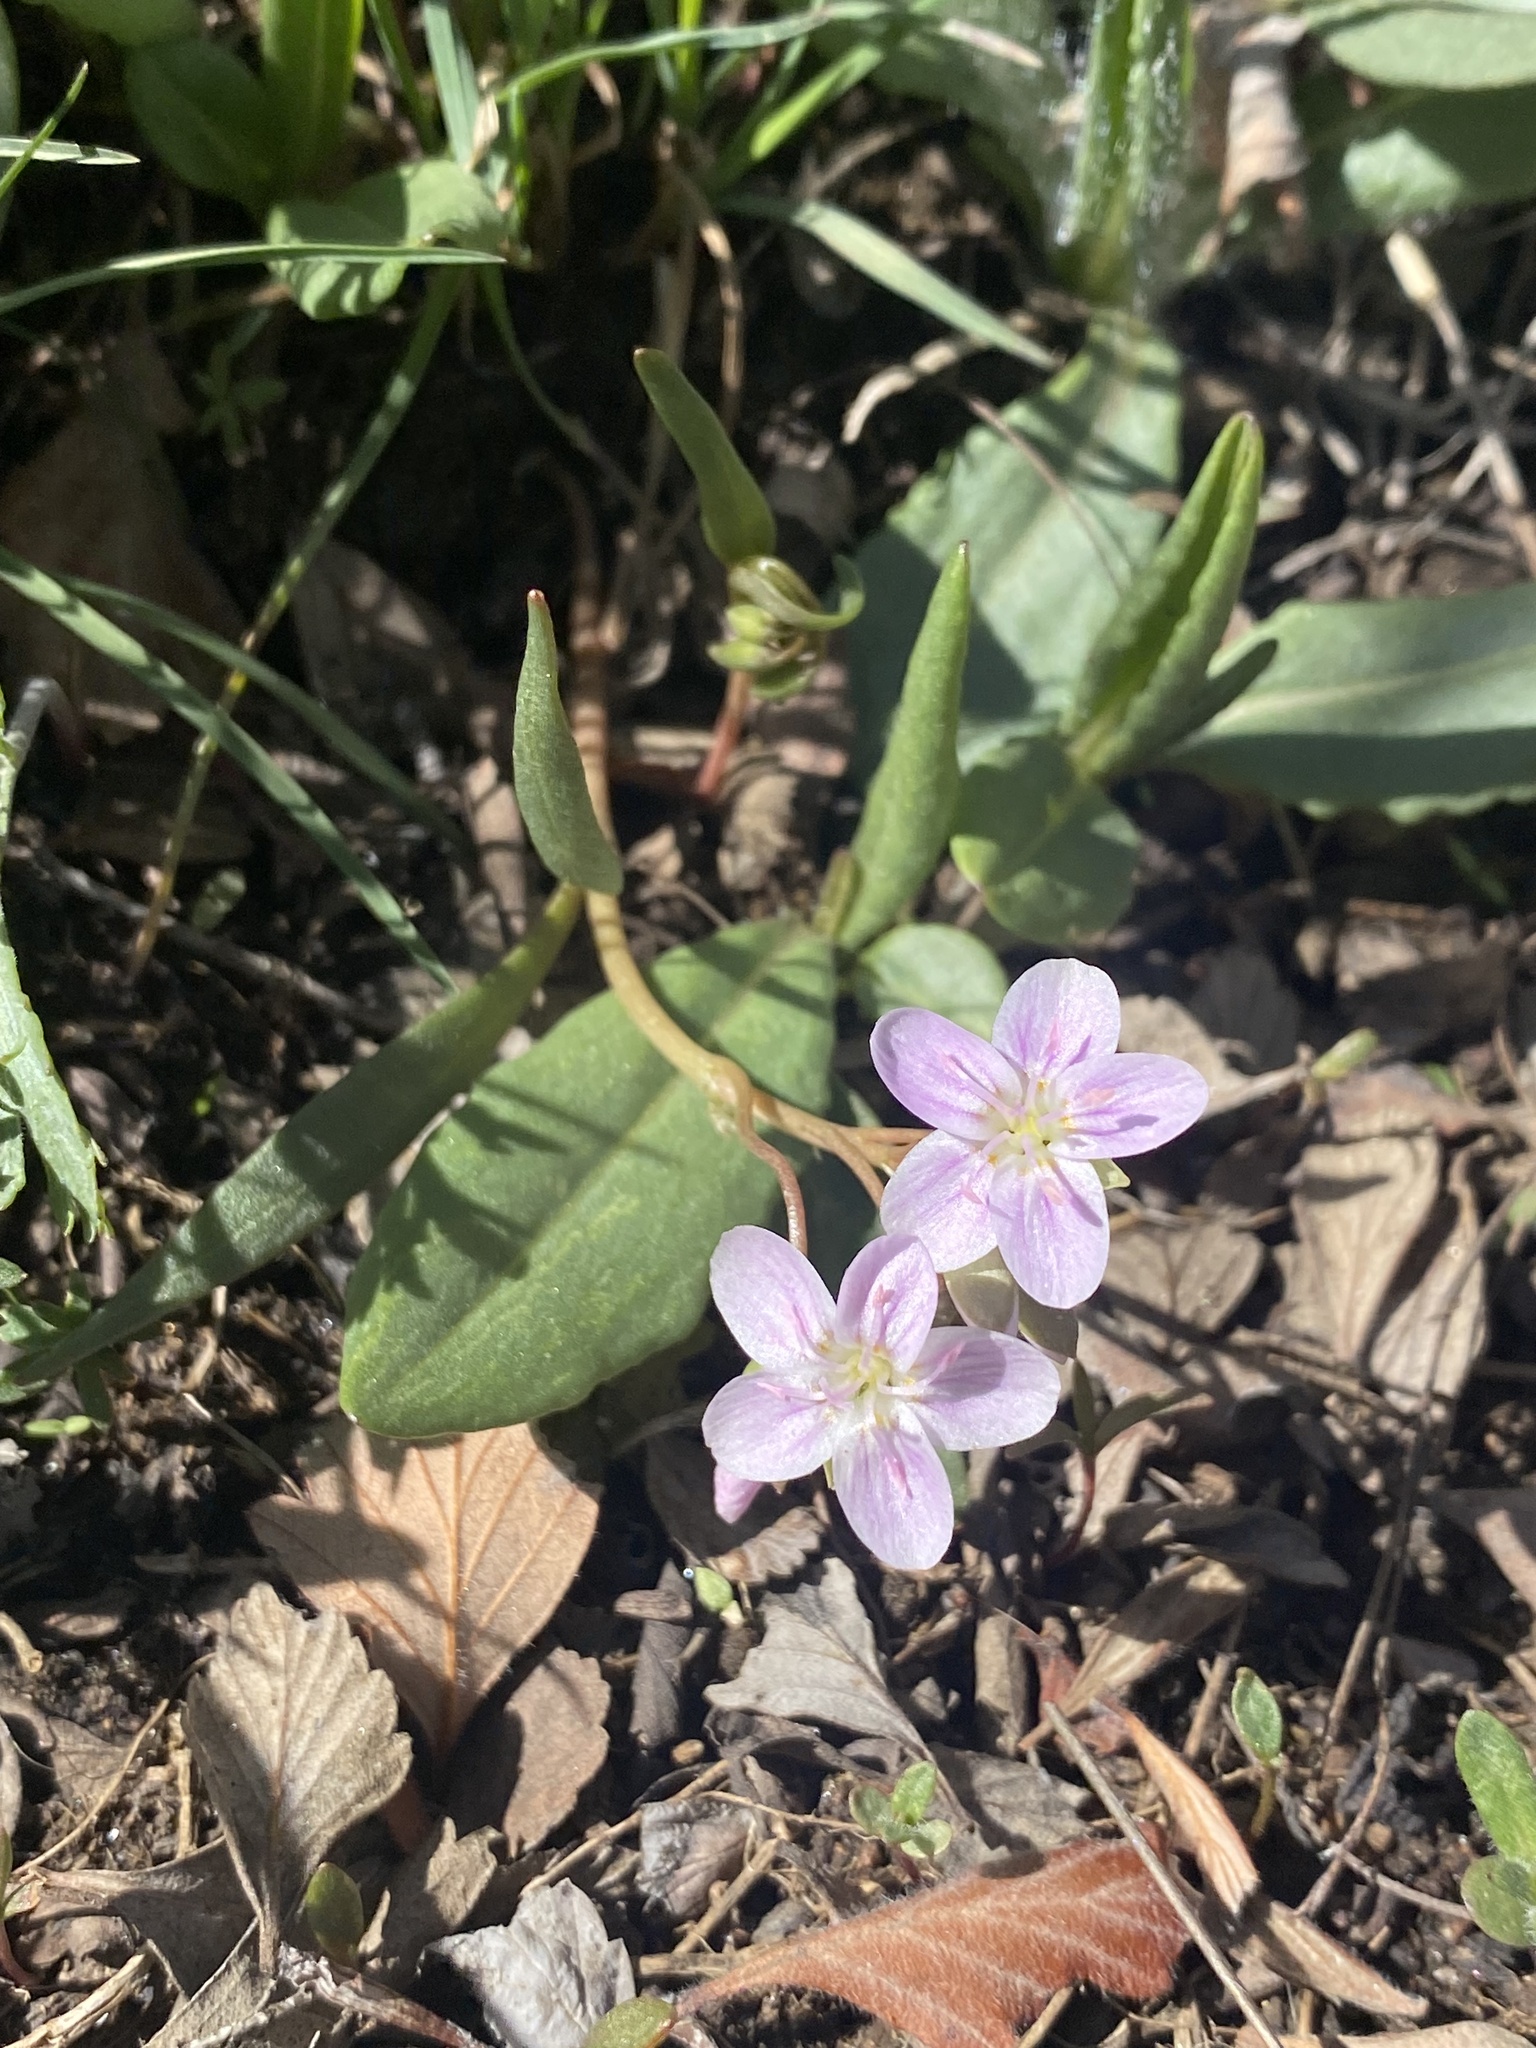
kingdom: Plantae
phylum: Tracheophyta
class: Magnoliopsida
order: Caryophyllales
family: Montiaceae
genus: Claytonia
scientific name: Claytonia rosea
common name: Rocky mountain spring-beauty
